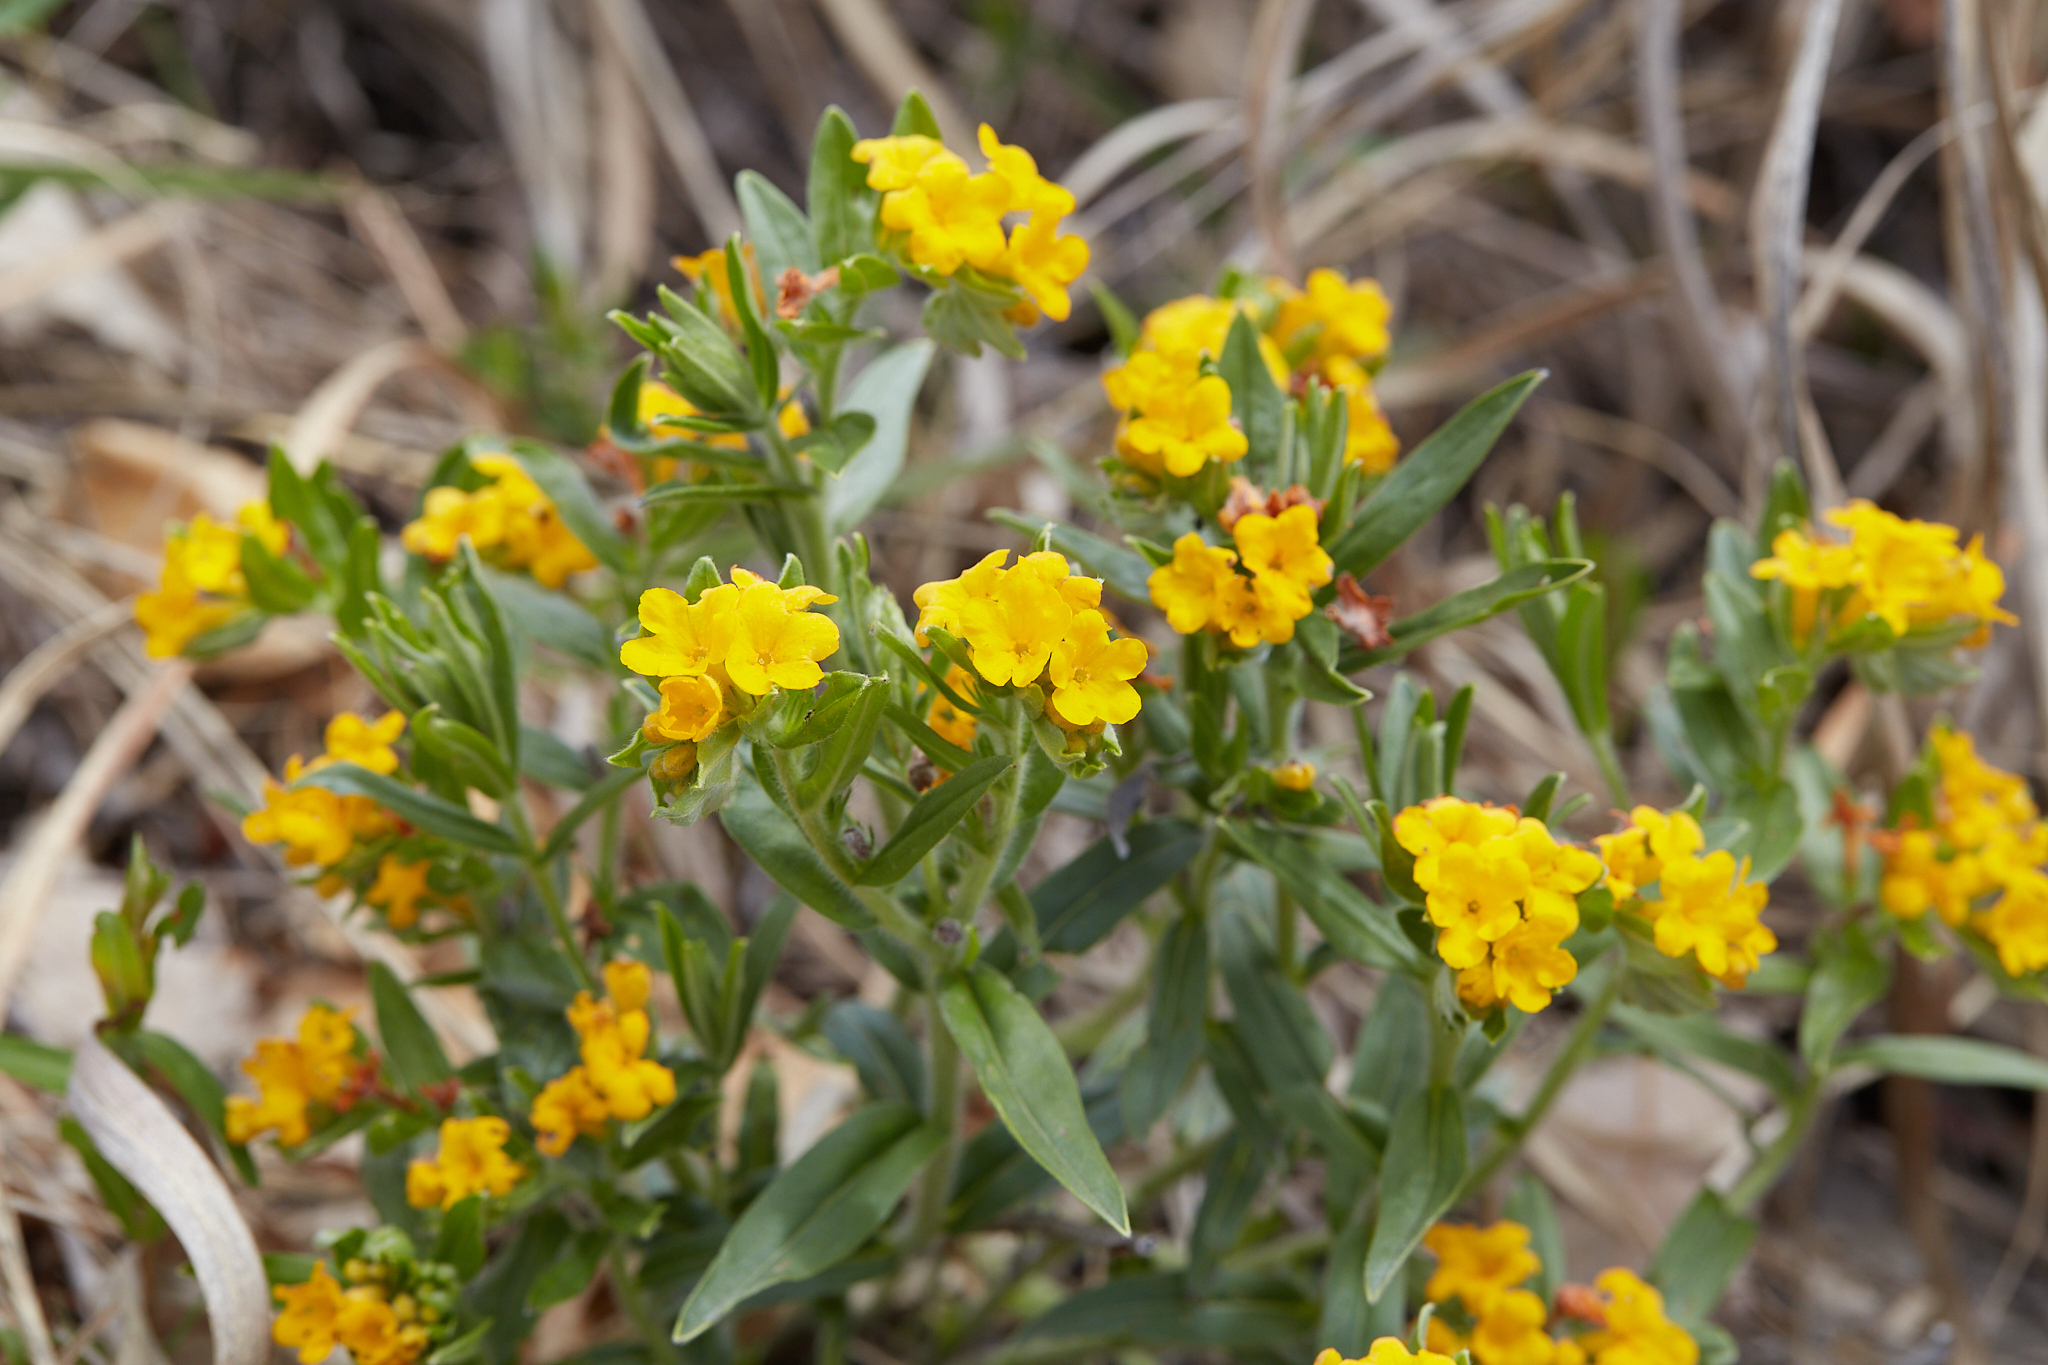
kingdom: Plantae
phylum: Tracheophyta
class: Magnoliopsida
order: Boraginales
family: Boraginaceae
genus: Lithospermum
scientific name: Lithospermum canescens
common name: Hoary puccoon
